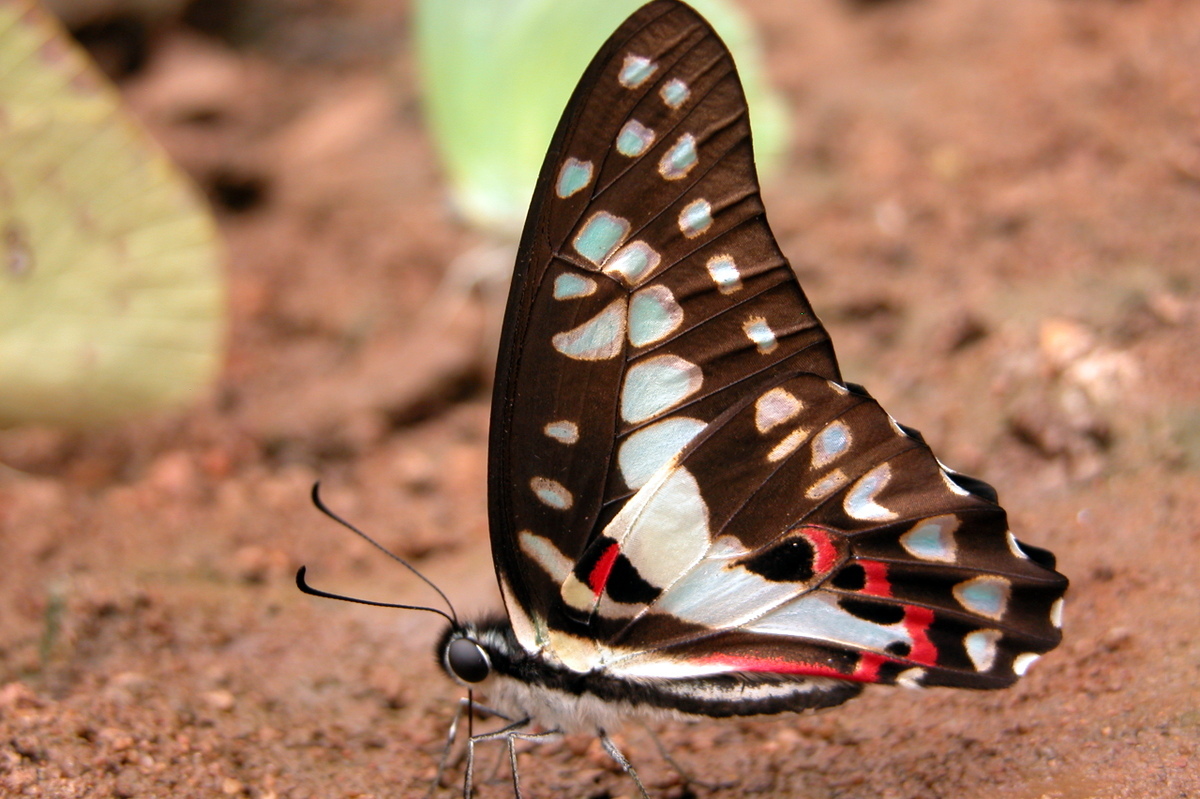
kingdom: Animalia
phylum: Arthropoda
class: Insecta
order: Lepidoptera
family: Papilionidae
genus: Graphium
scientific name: Graphium doson
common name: Common jay
